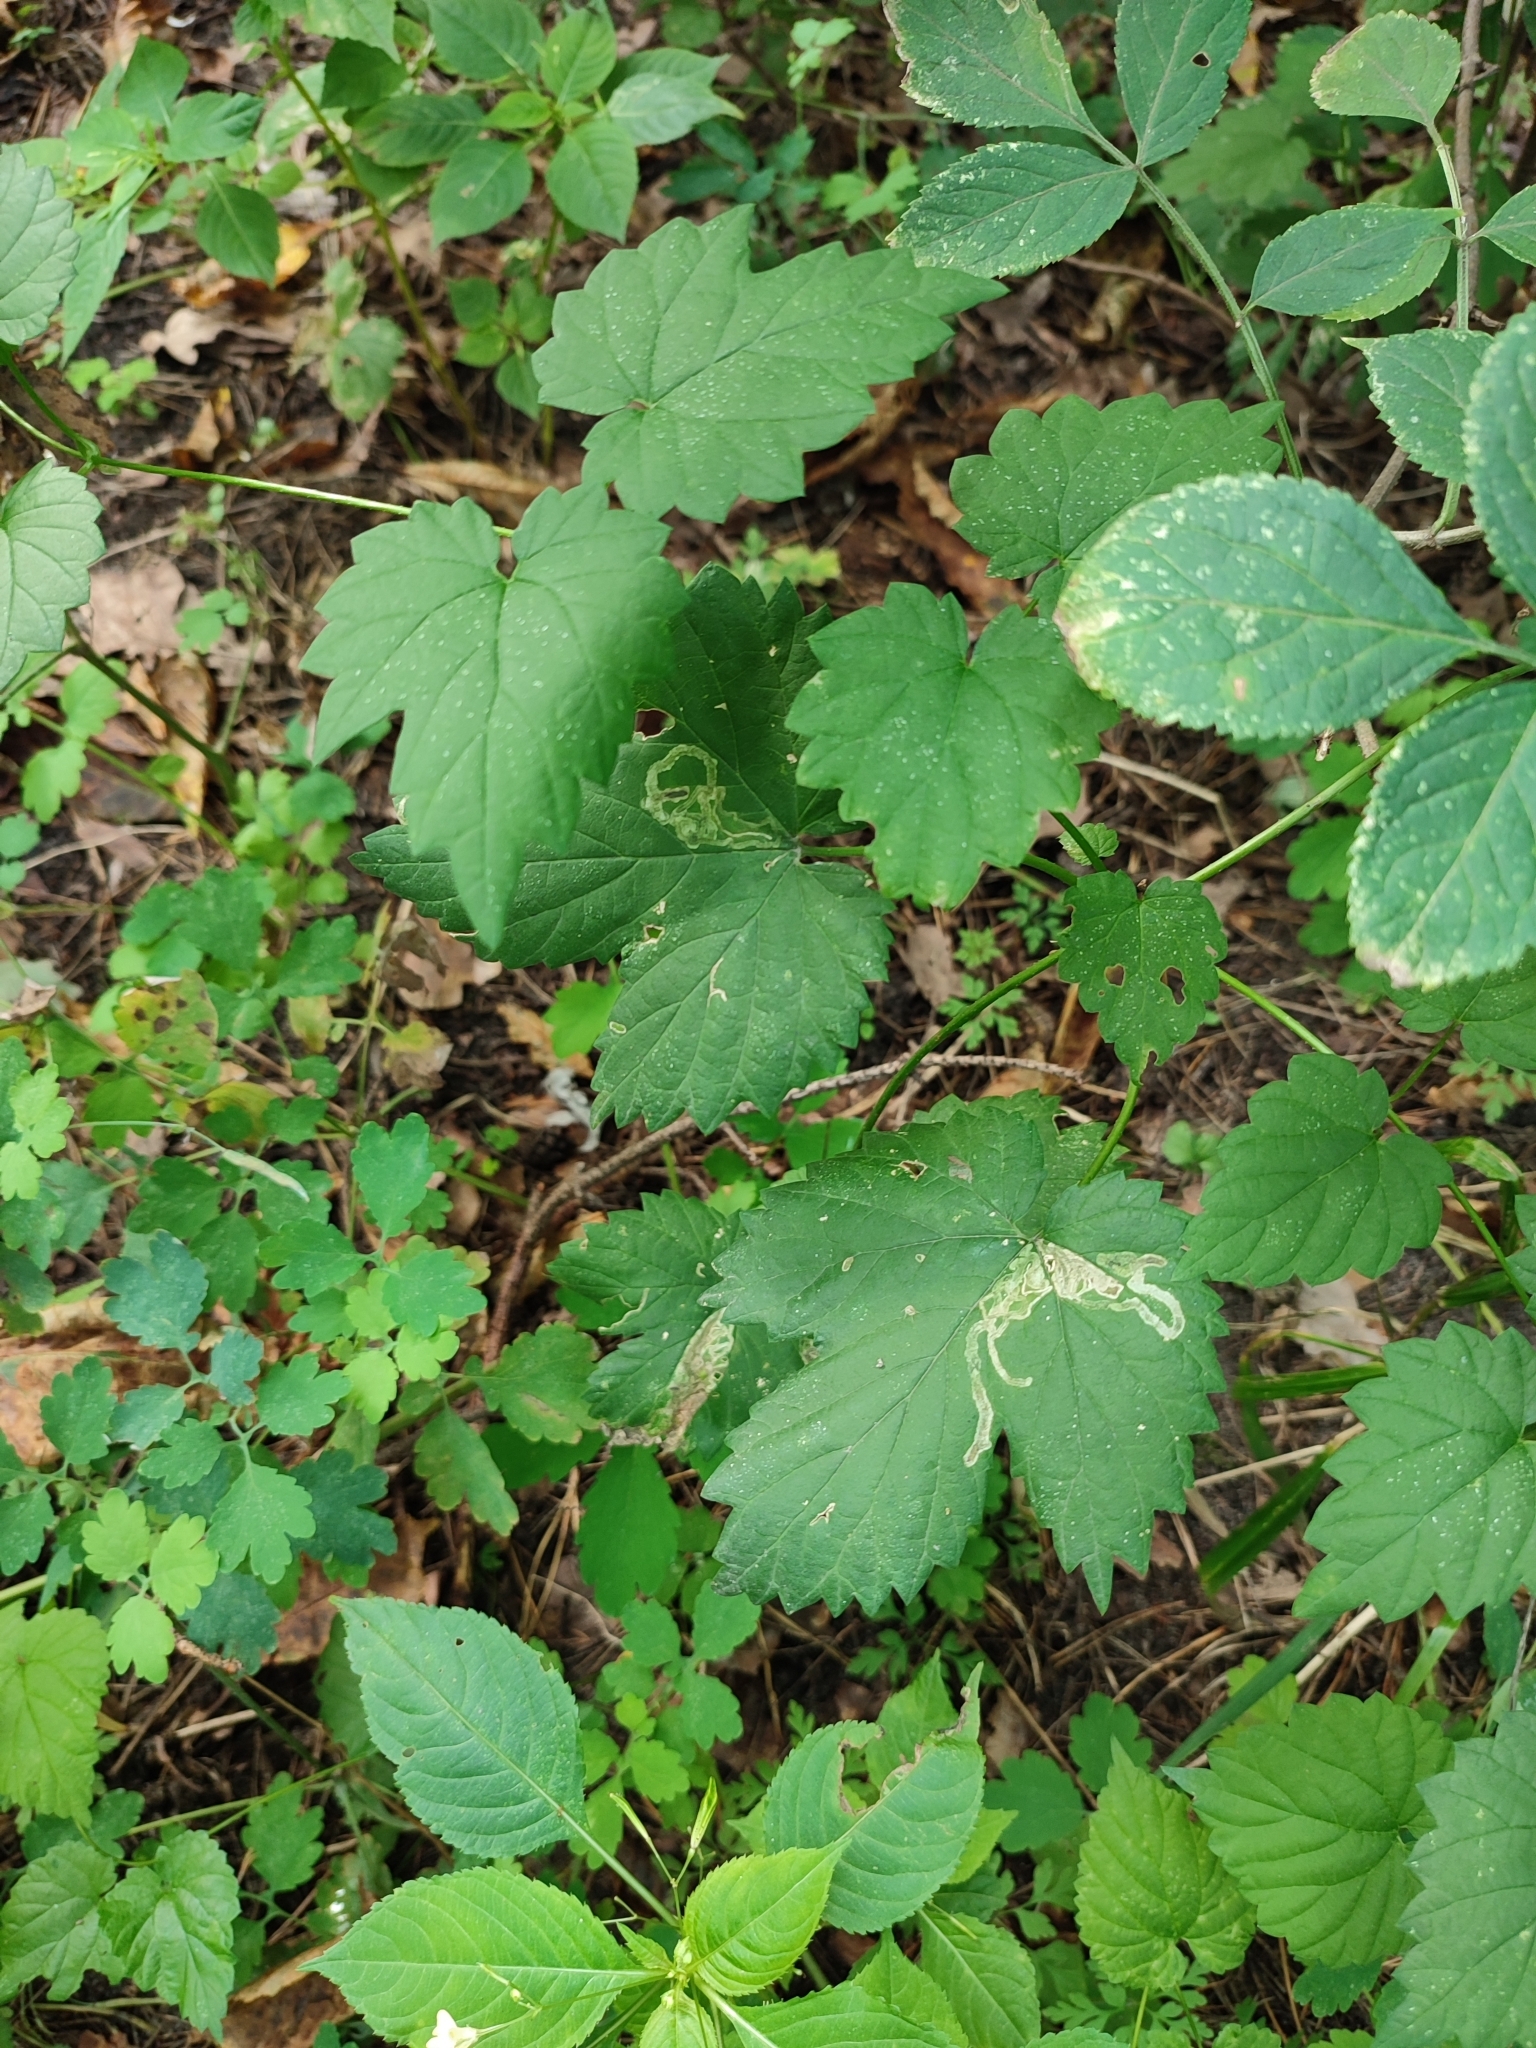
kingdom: Plantae
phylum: Tracheophyta
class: Magnoliopsida
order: Rosales
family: Cannabaceae
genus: Humulus
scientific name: Humulus lupulus
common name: Hop
